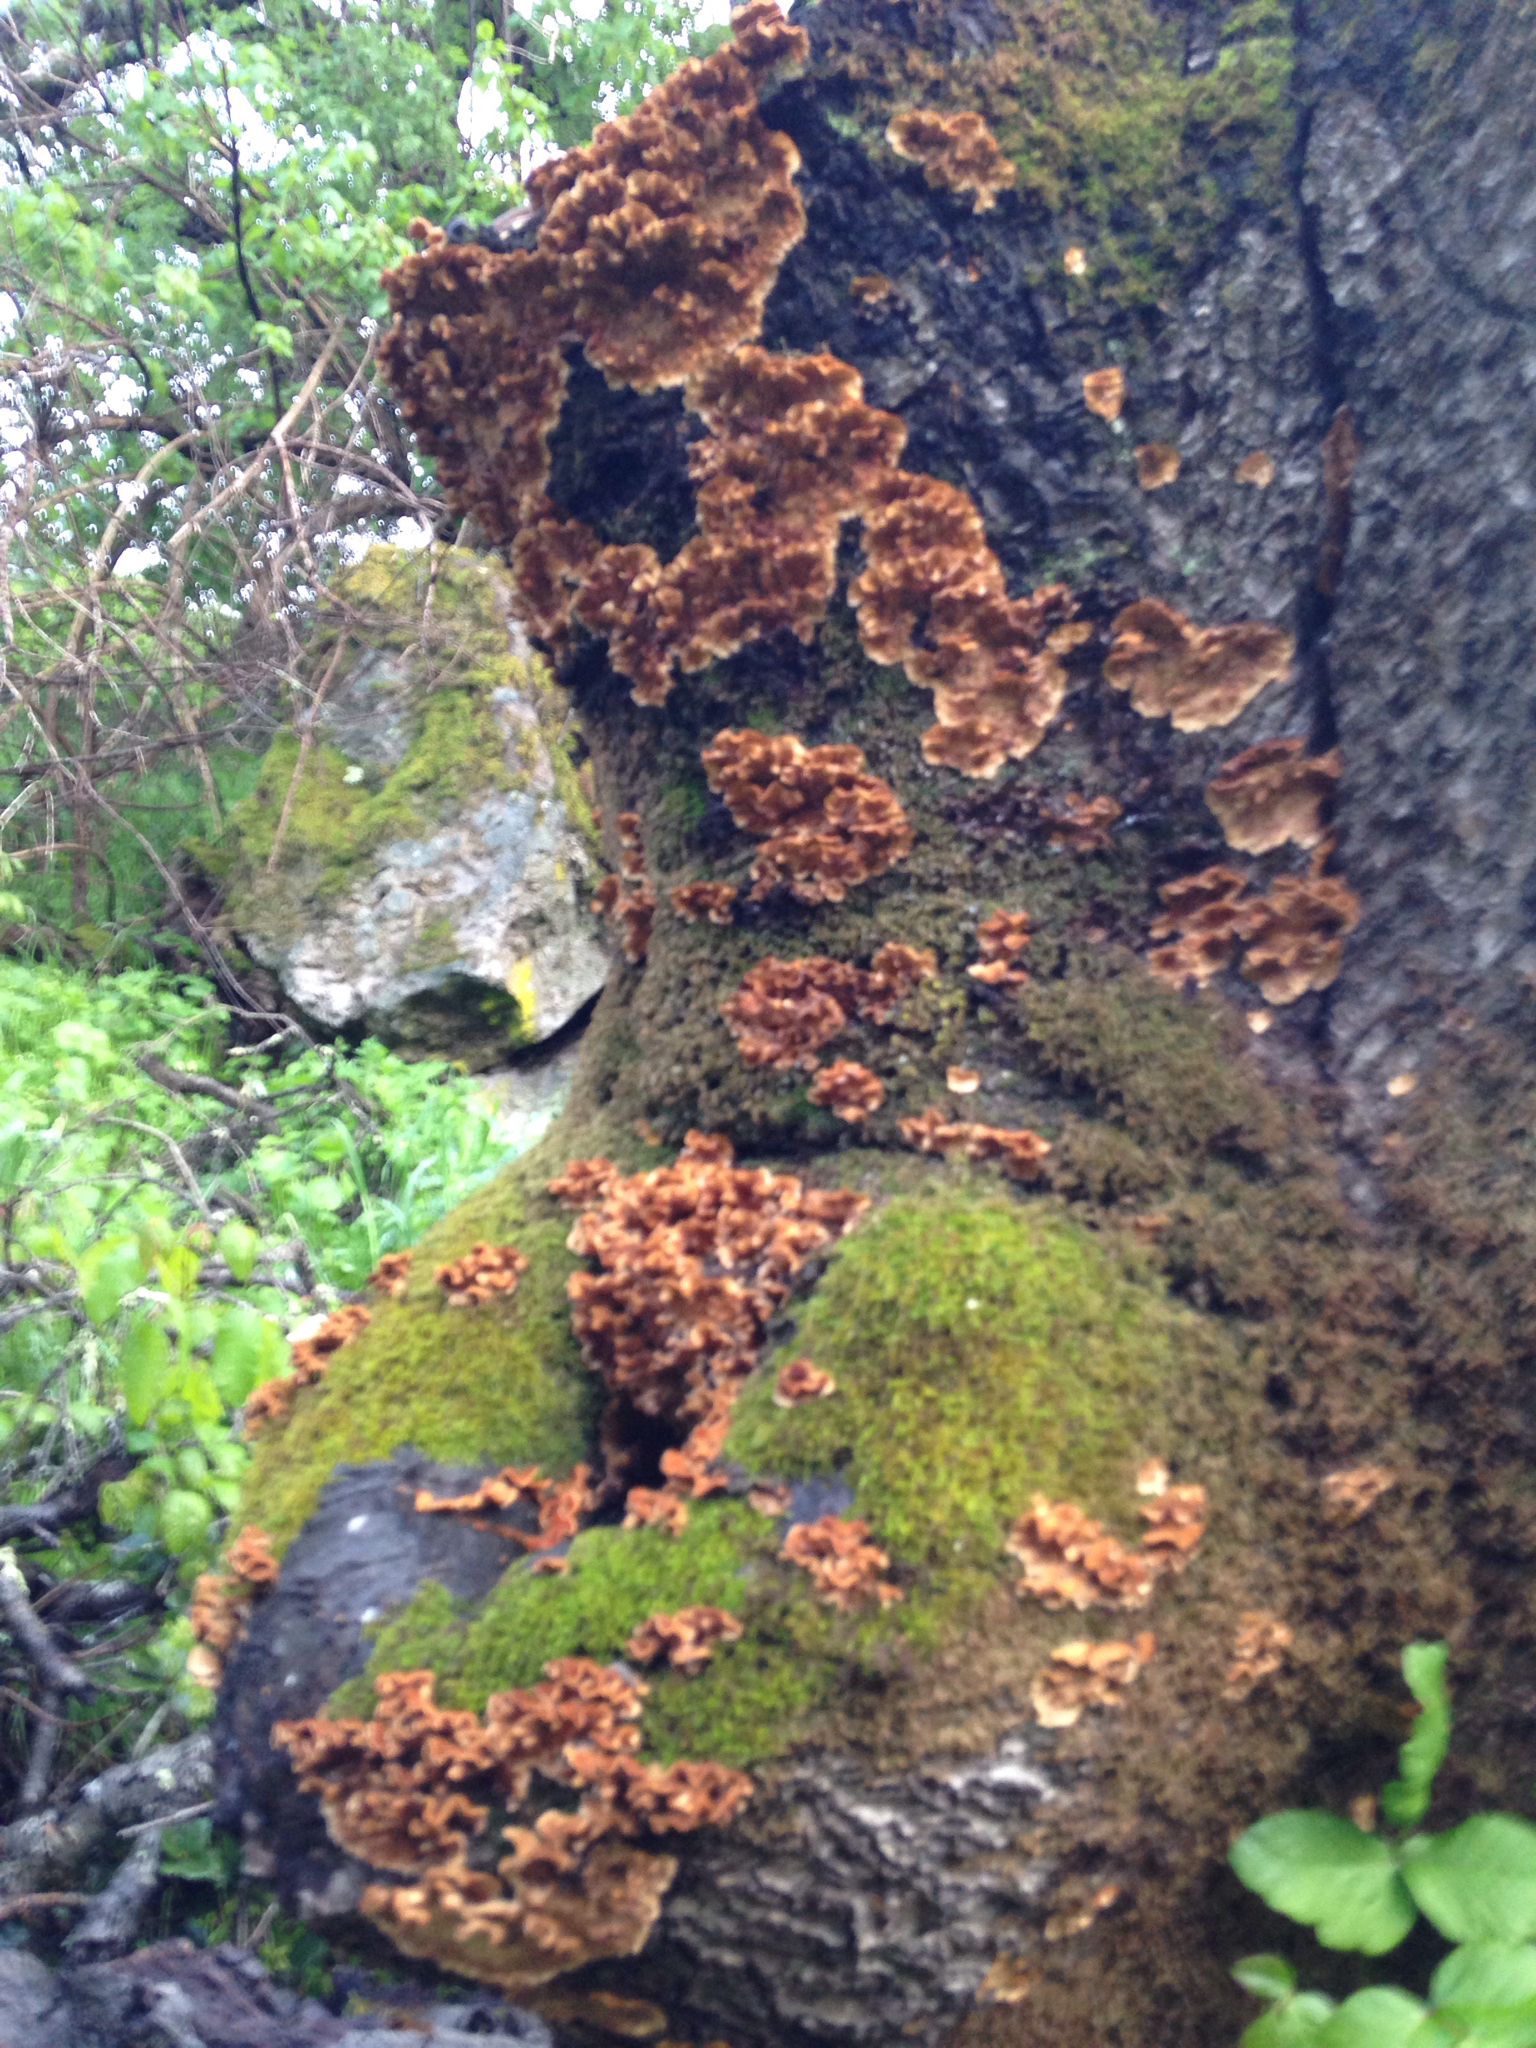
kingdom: Fungi
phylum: Basidiomycota
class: Agaricomycetes
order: Russulales
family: Stereaceae
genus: Stereum
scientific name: Stereum hirsutum
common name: Hairy curtain crust
